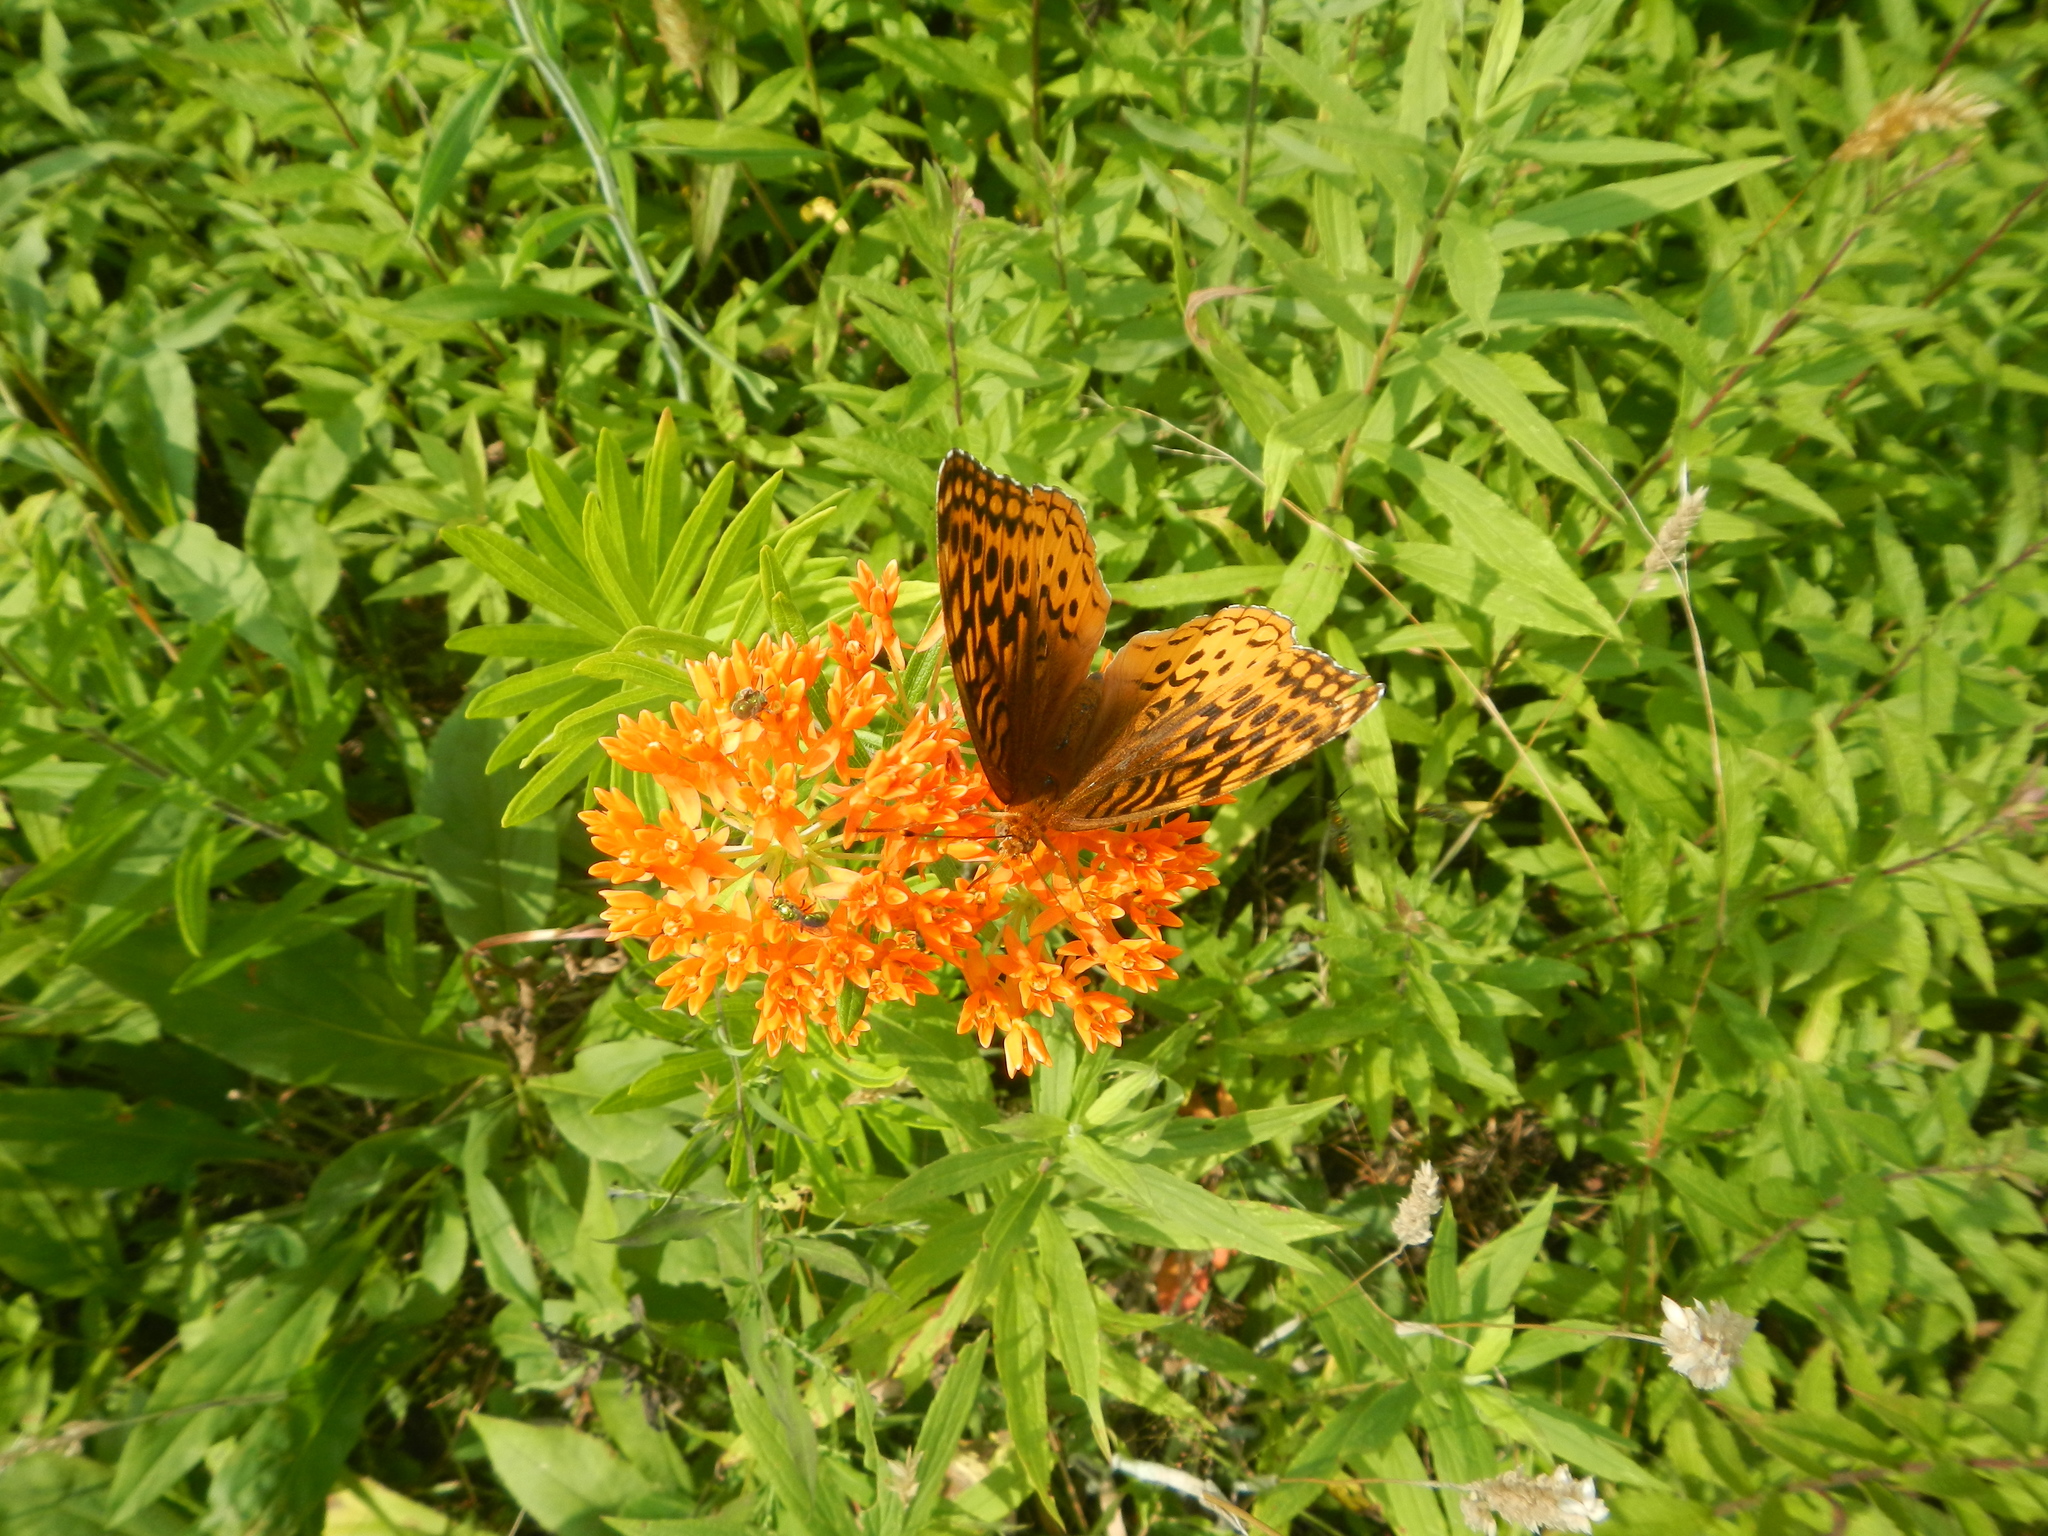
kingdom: Animalia
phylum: Arthropoda
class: Insecta
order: Lepidoptera
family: Nymphalidae
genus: Speyeria
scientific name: Speyeria cybele
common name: Great spangled fritillary
